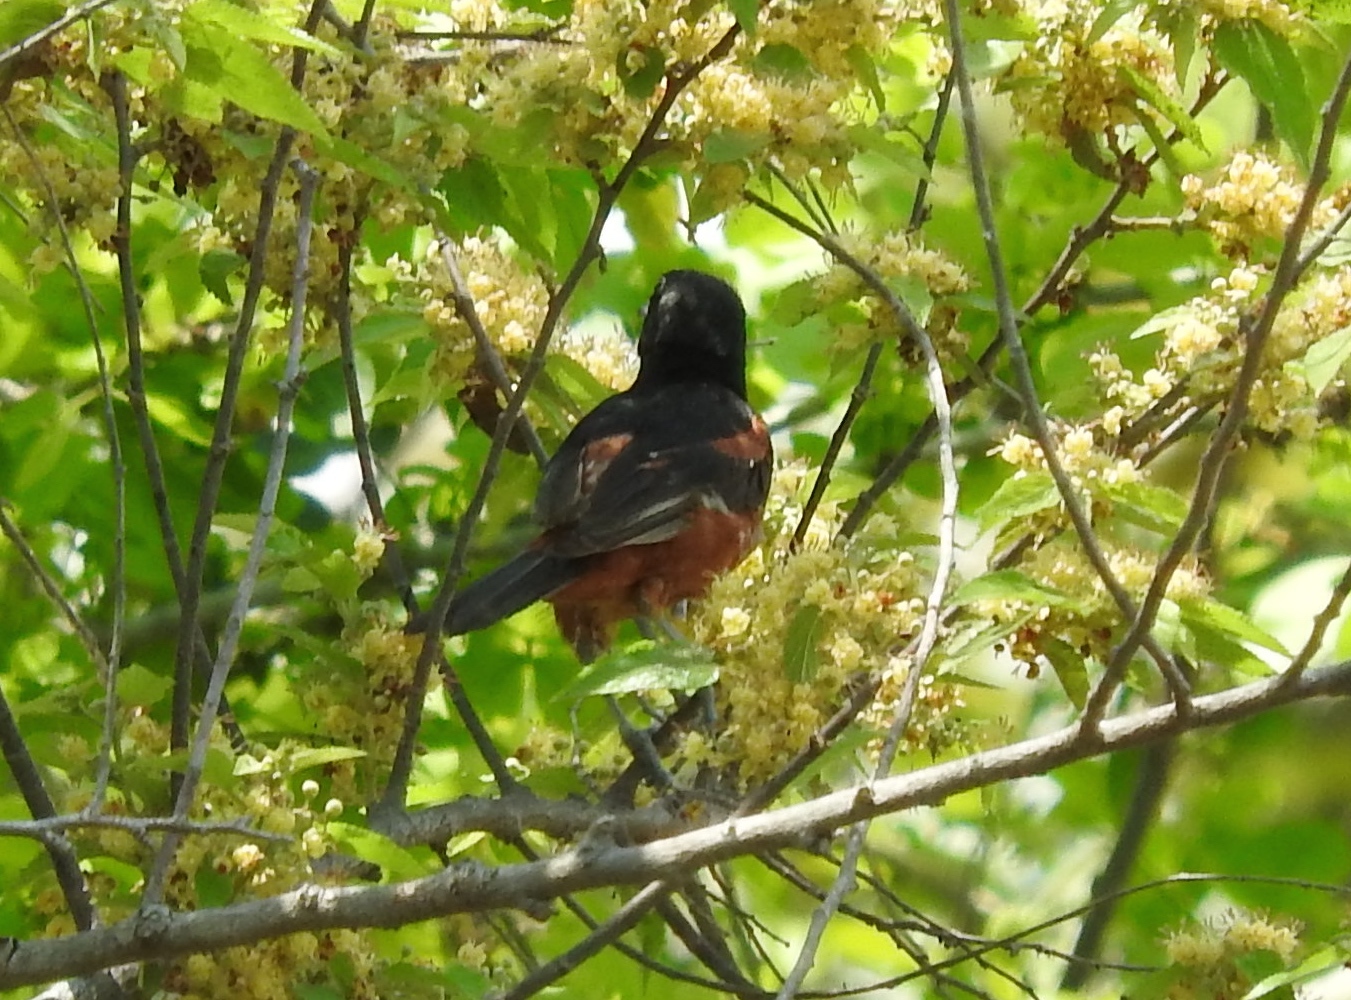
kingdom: Animalia
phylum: Chordata
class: Aves
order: Passeriformes
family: Icteridae
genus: Icterus
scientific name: Icterus spurius
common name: Orchard oriole
